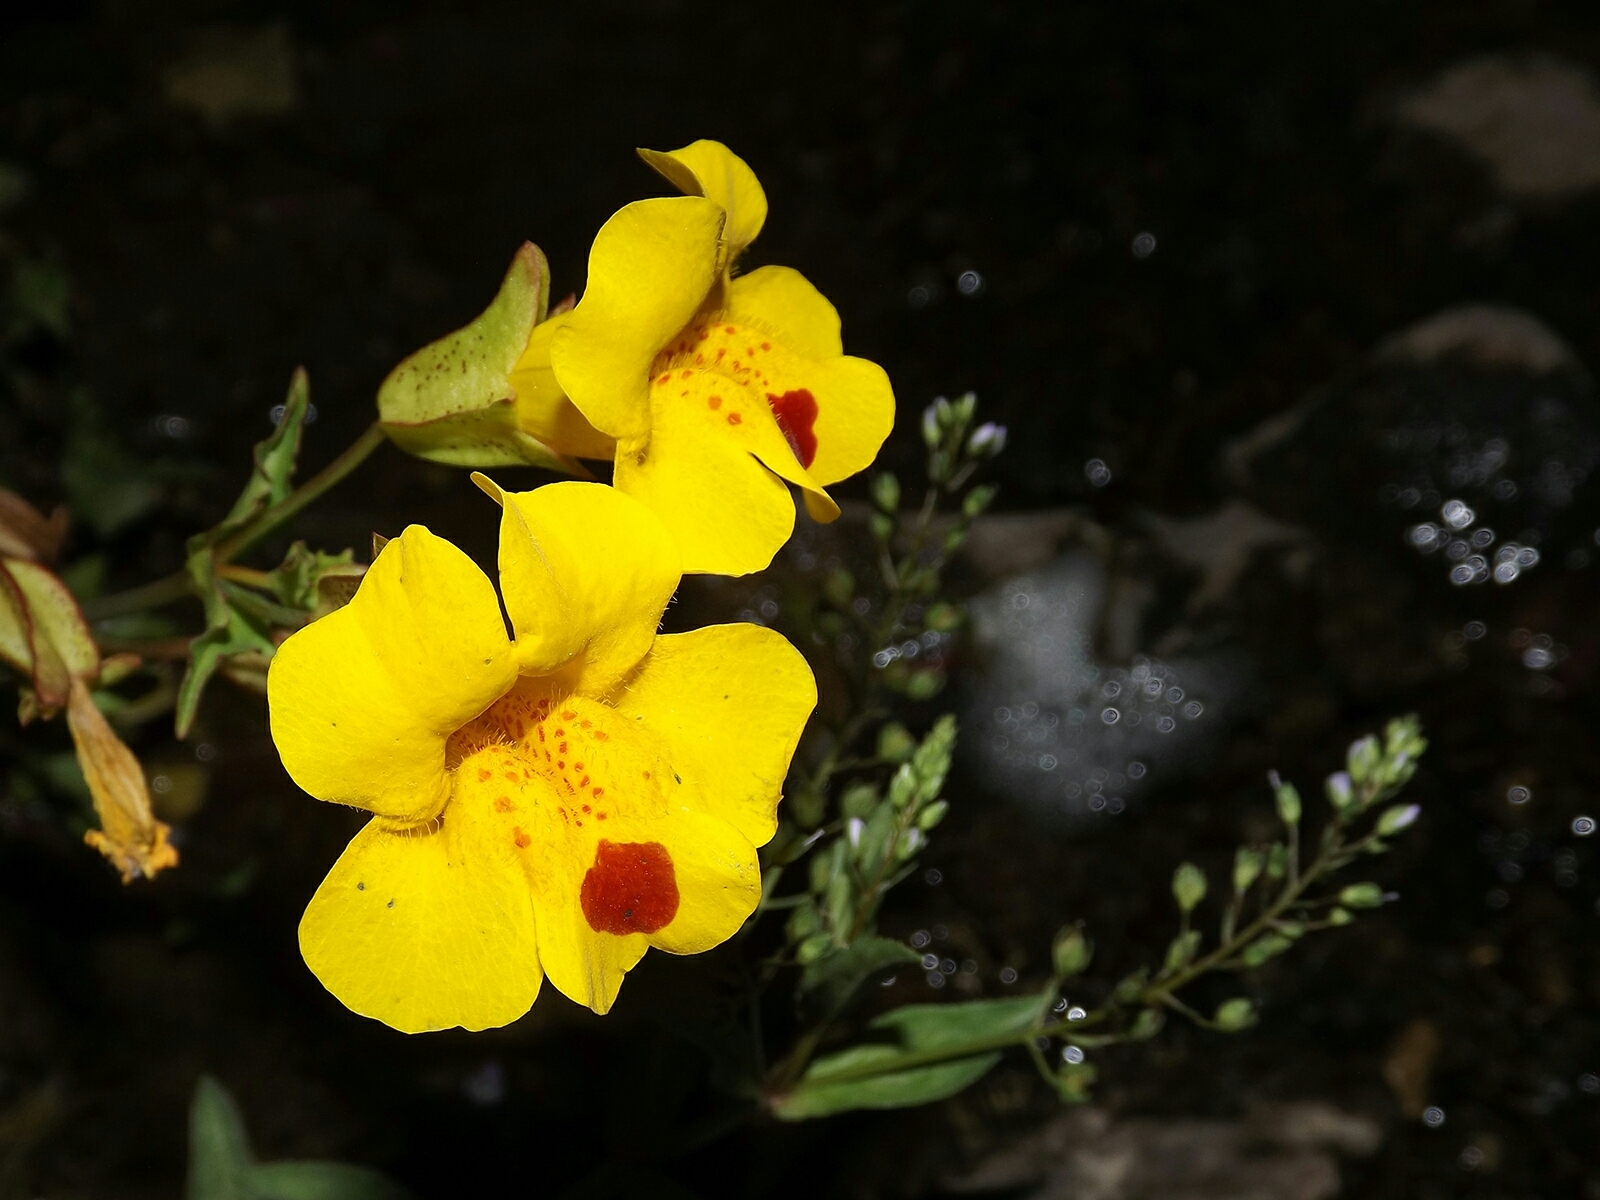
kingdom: Plantae
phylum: Tracheophyta
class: Magnoliopsida
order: Lamiales
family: Phrymaceae
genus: Erythranthe
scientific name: Erythranthe lutea
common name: Yellow monkey-flower
